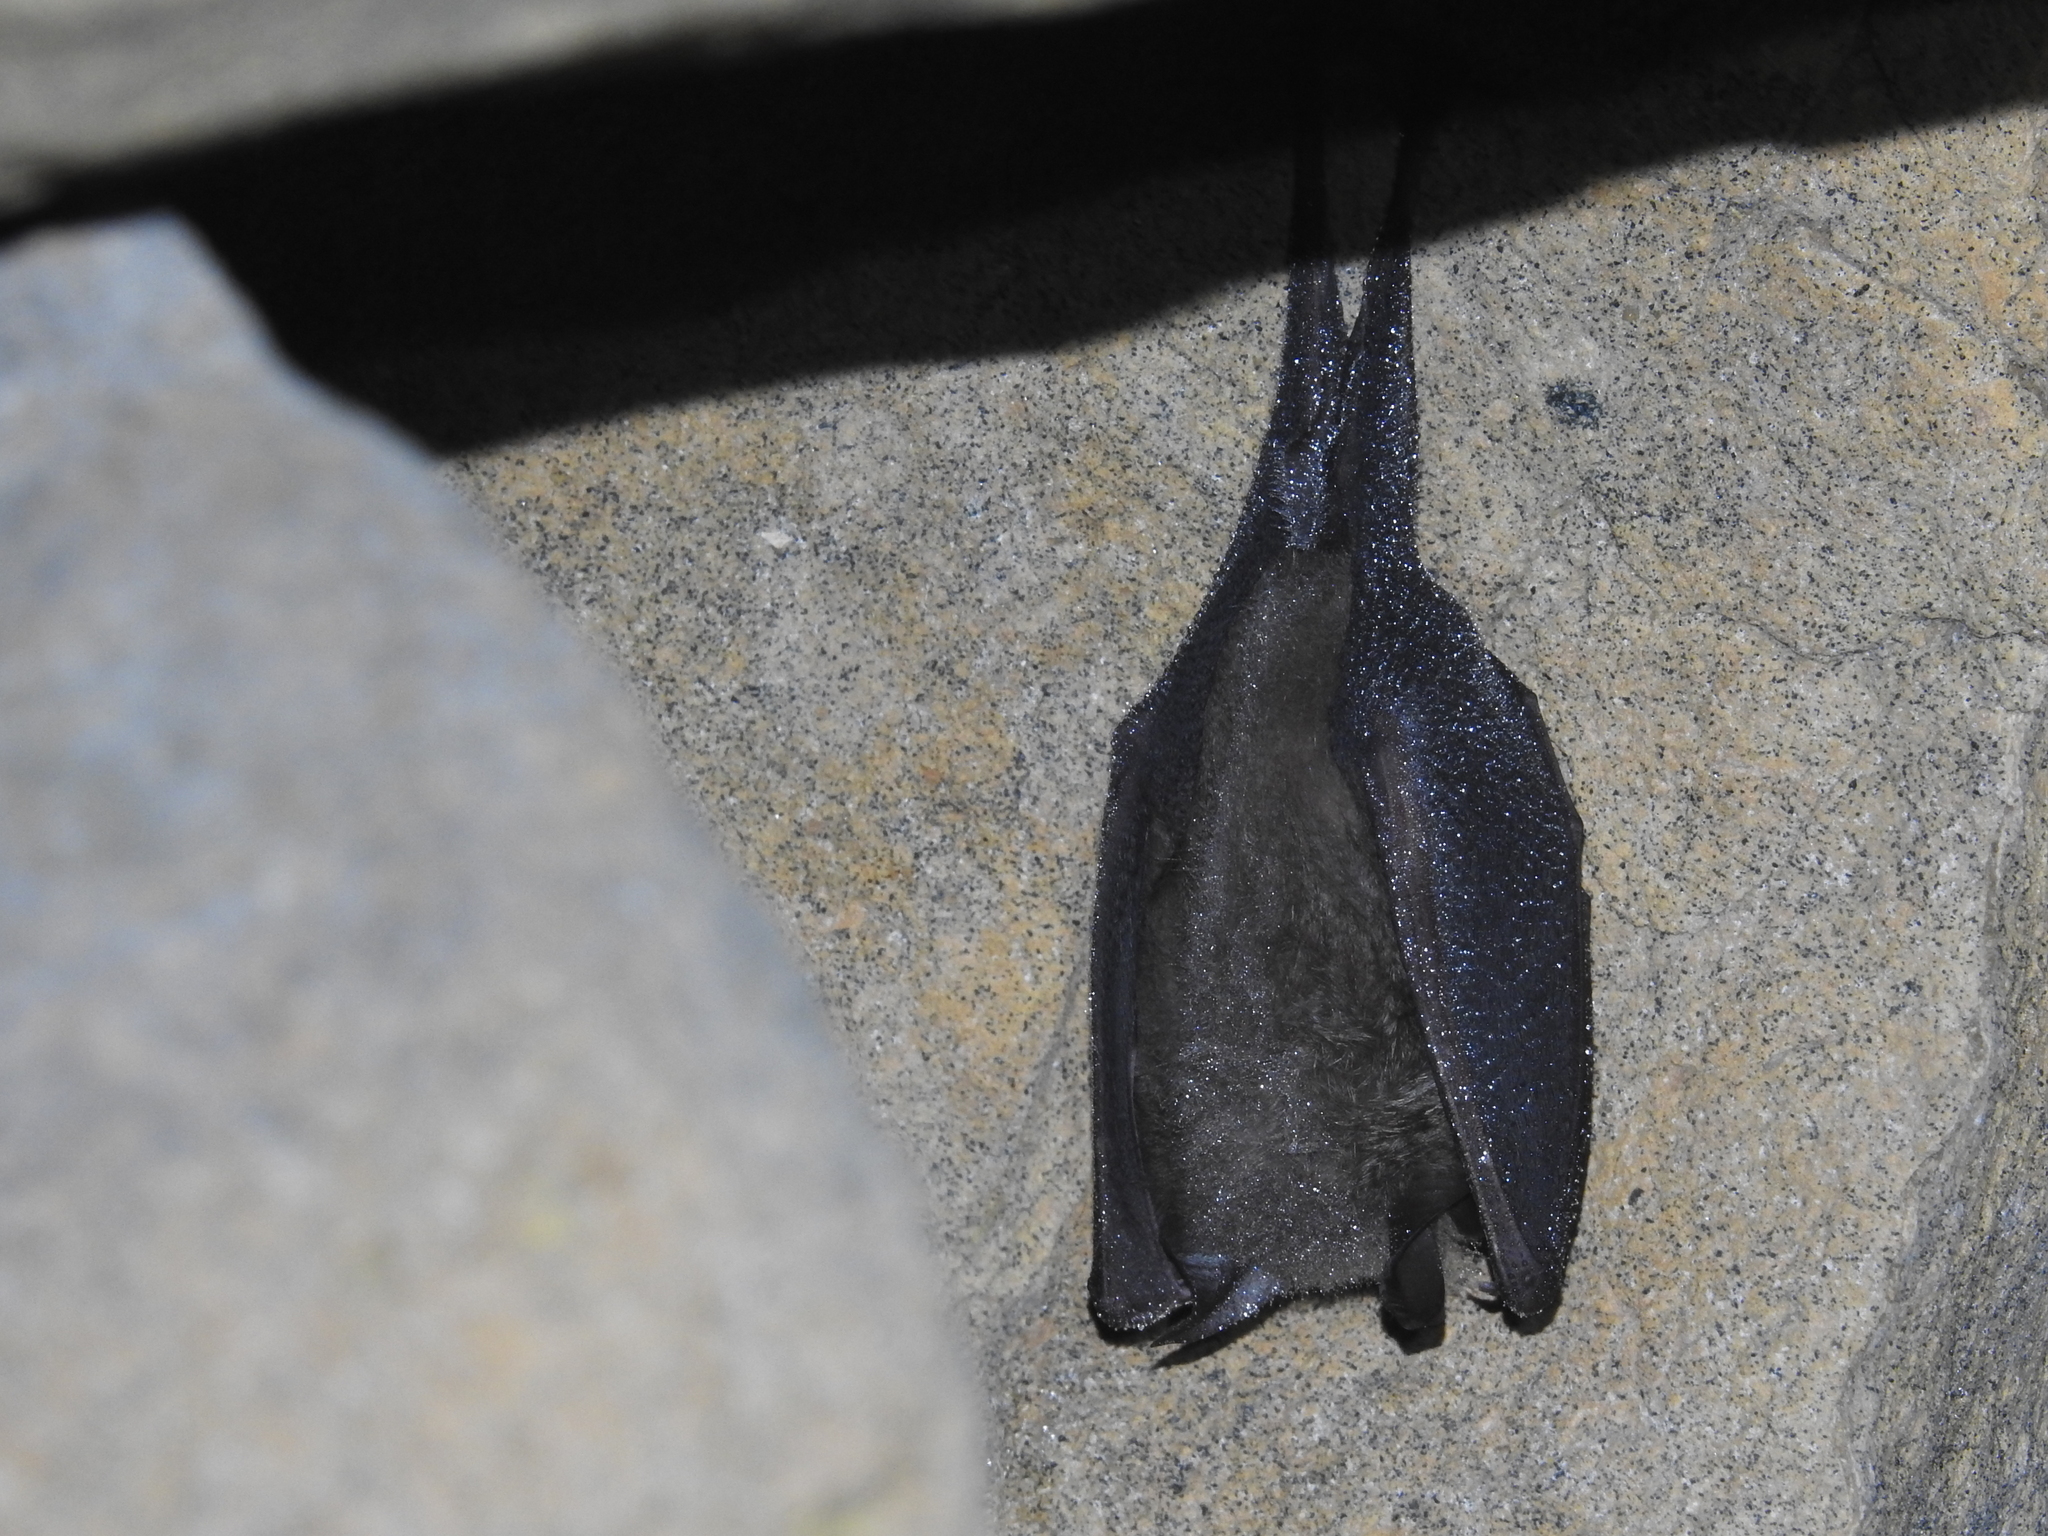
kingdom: Animalia
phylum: Chordata
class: Mammalia
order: Chiroptera
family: Rhinolophidae
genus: Rhinolophus
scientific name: Rhinolophus pearsonii
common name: Pearson's horseshoe bat
